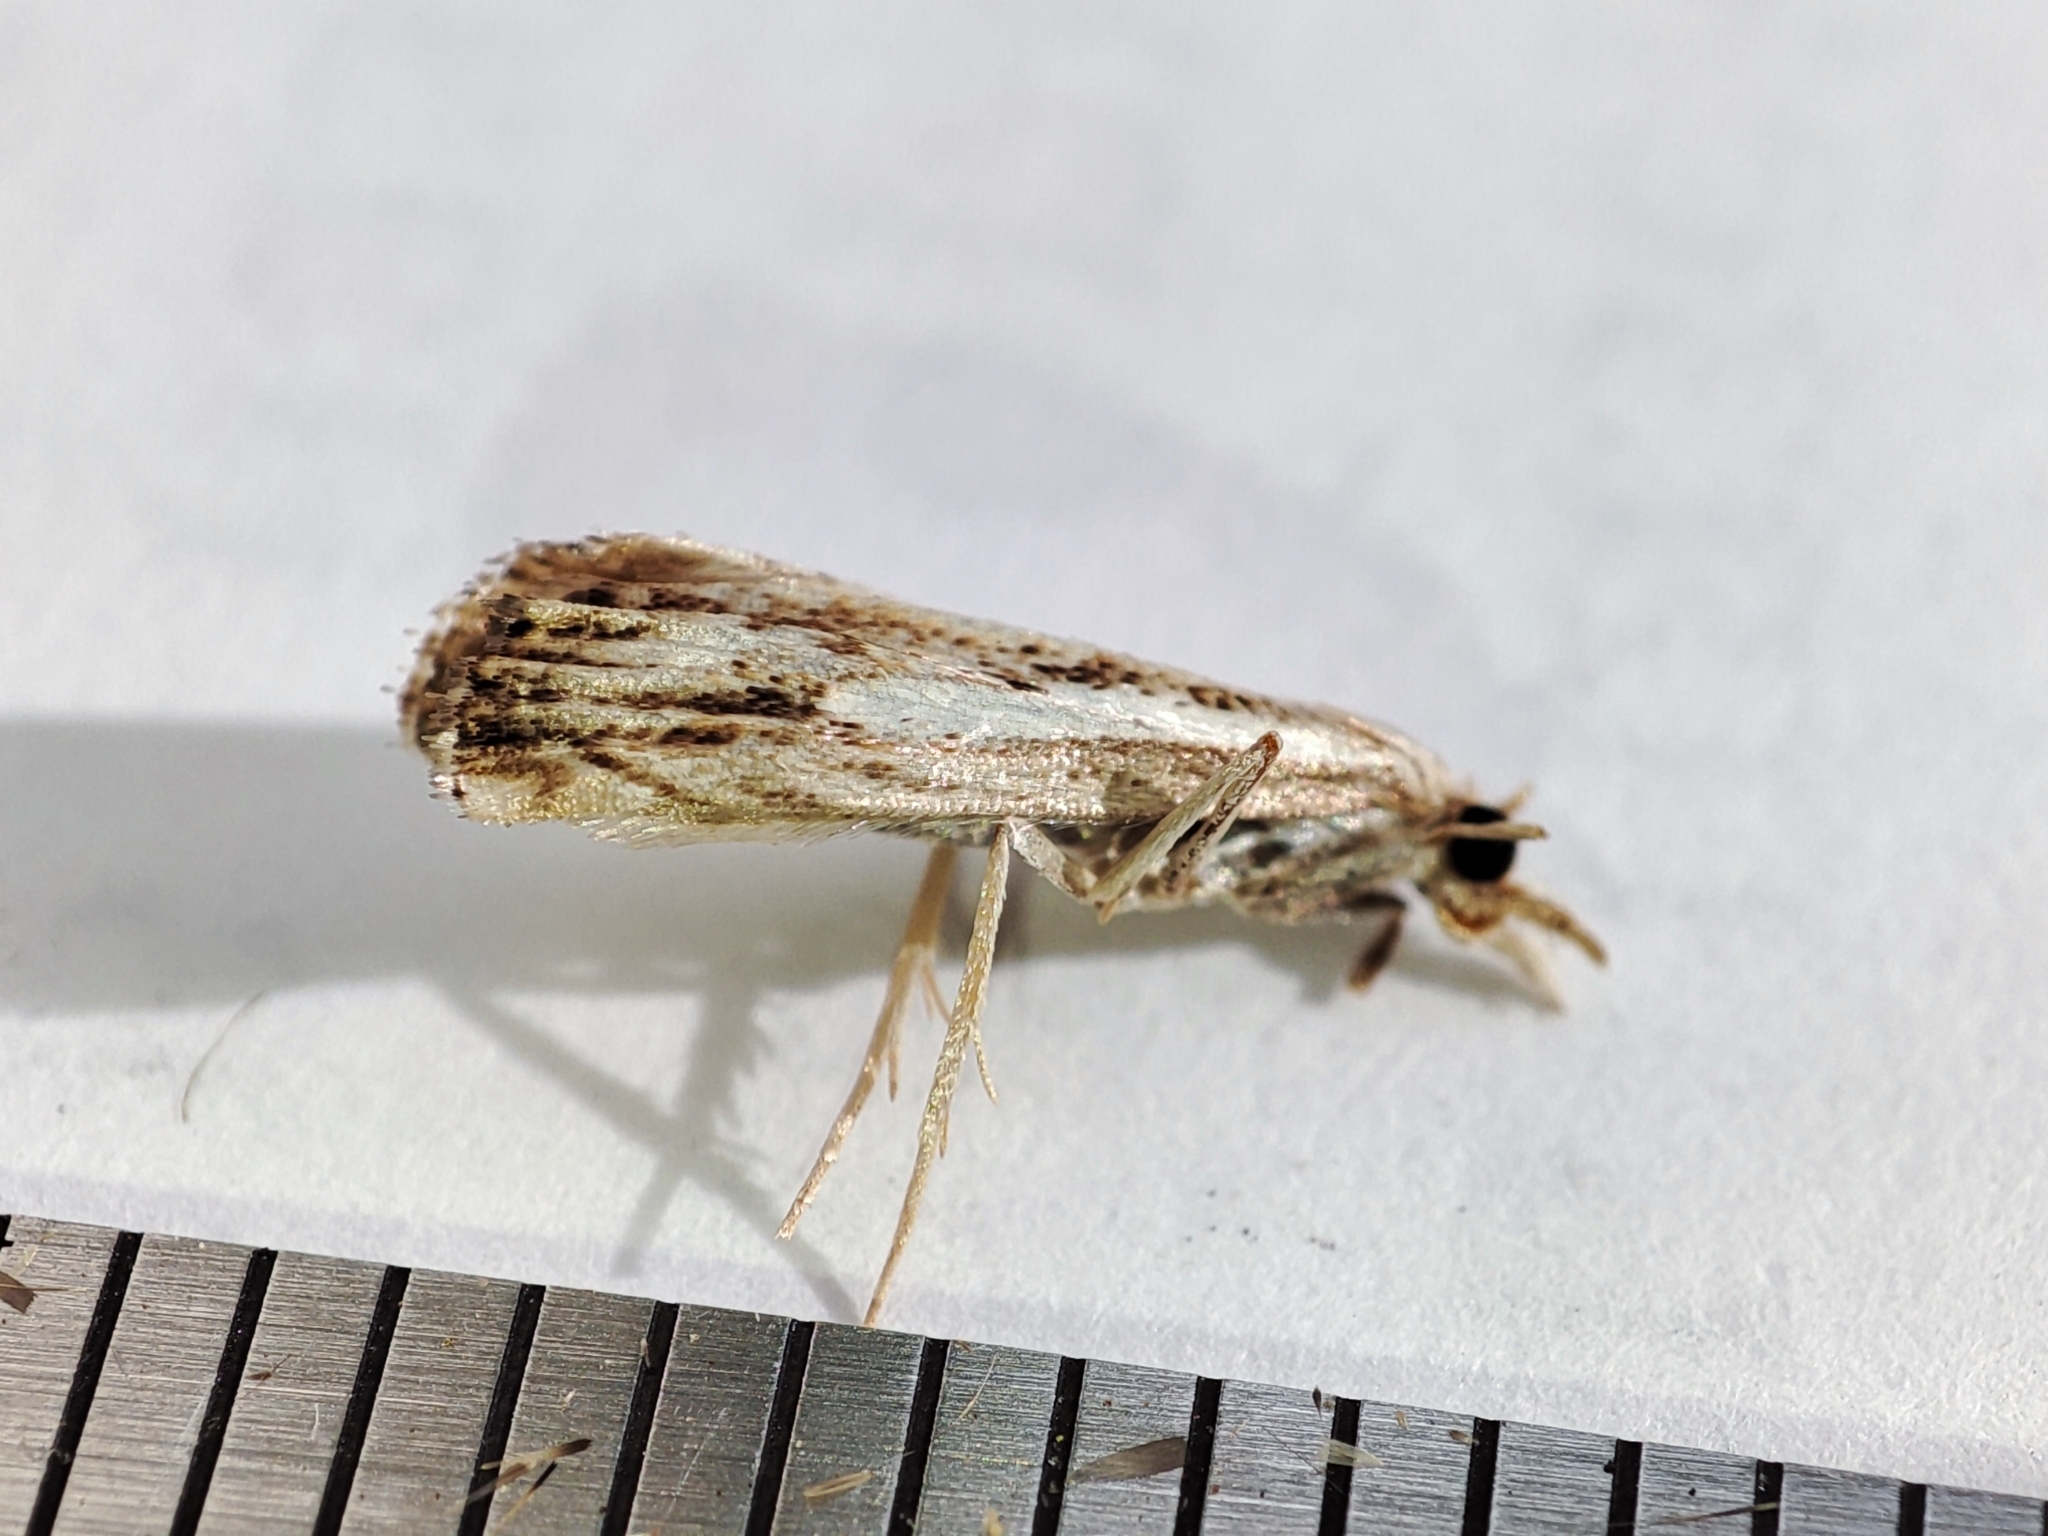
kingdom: Animalia
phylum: Arthropoda
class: Insecta
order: Lepidoptera
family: Crambidae
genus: Catoptria
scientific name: Catoptria falsella
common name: Chequered grass-veneer
